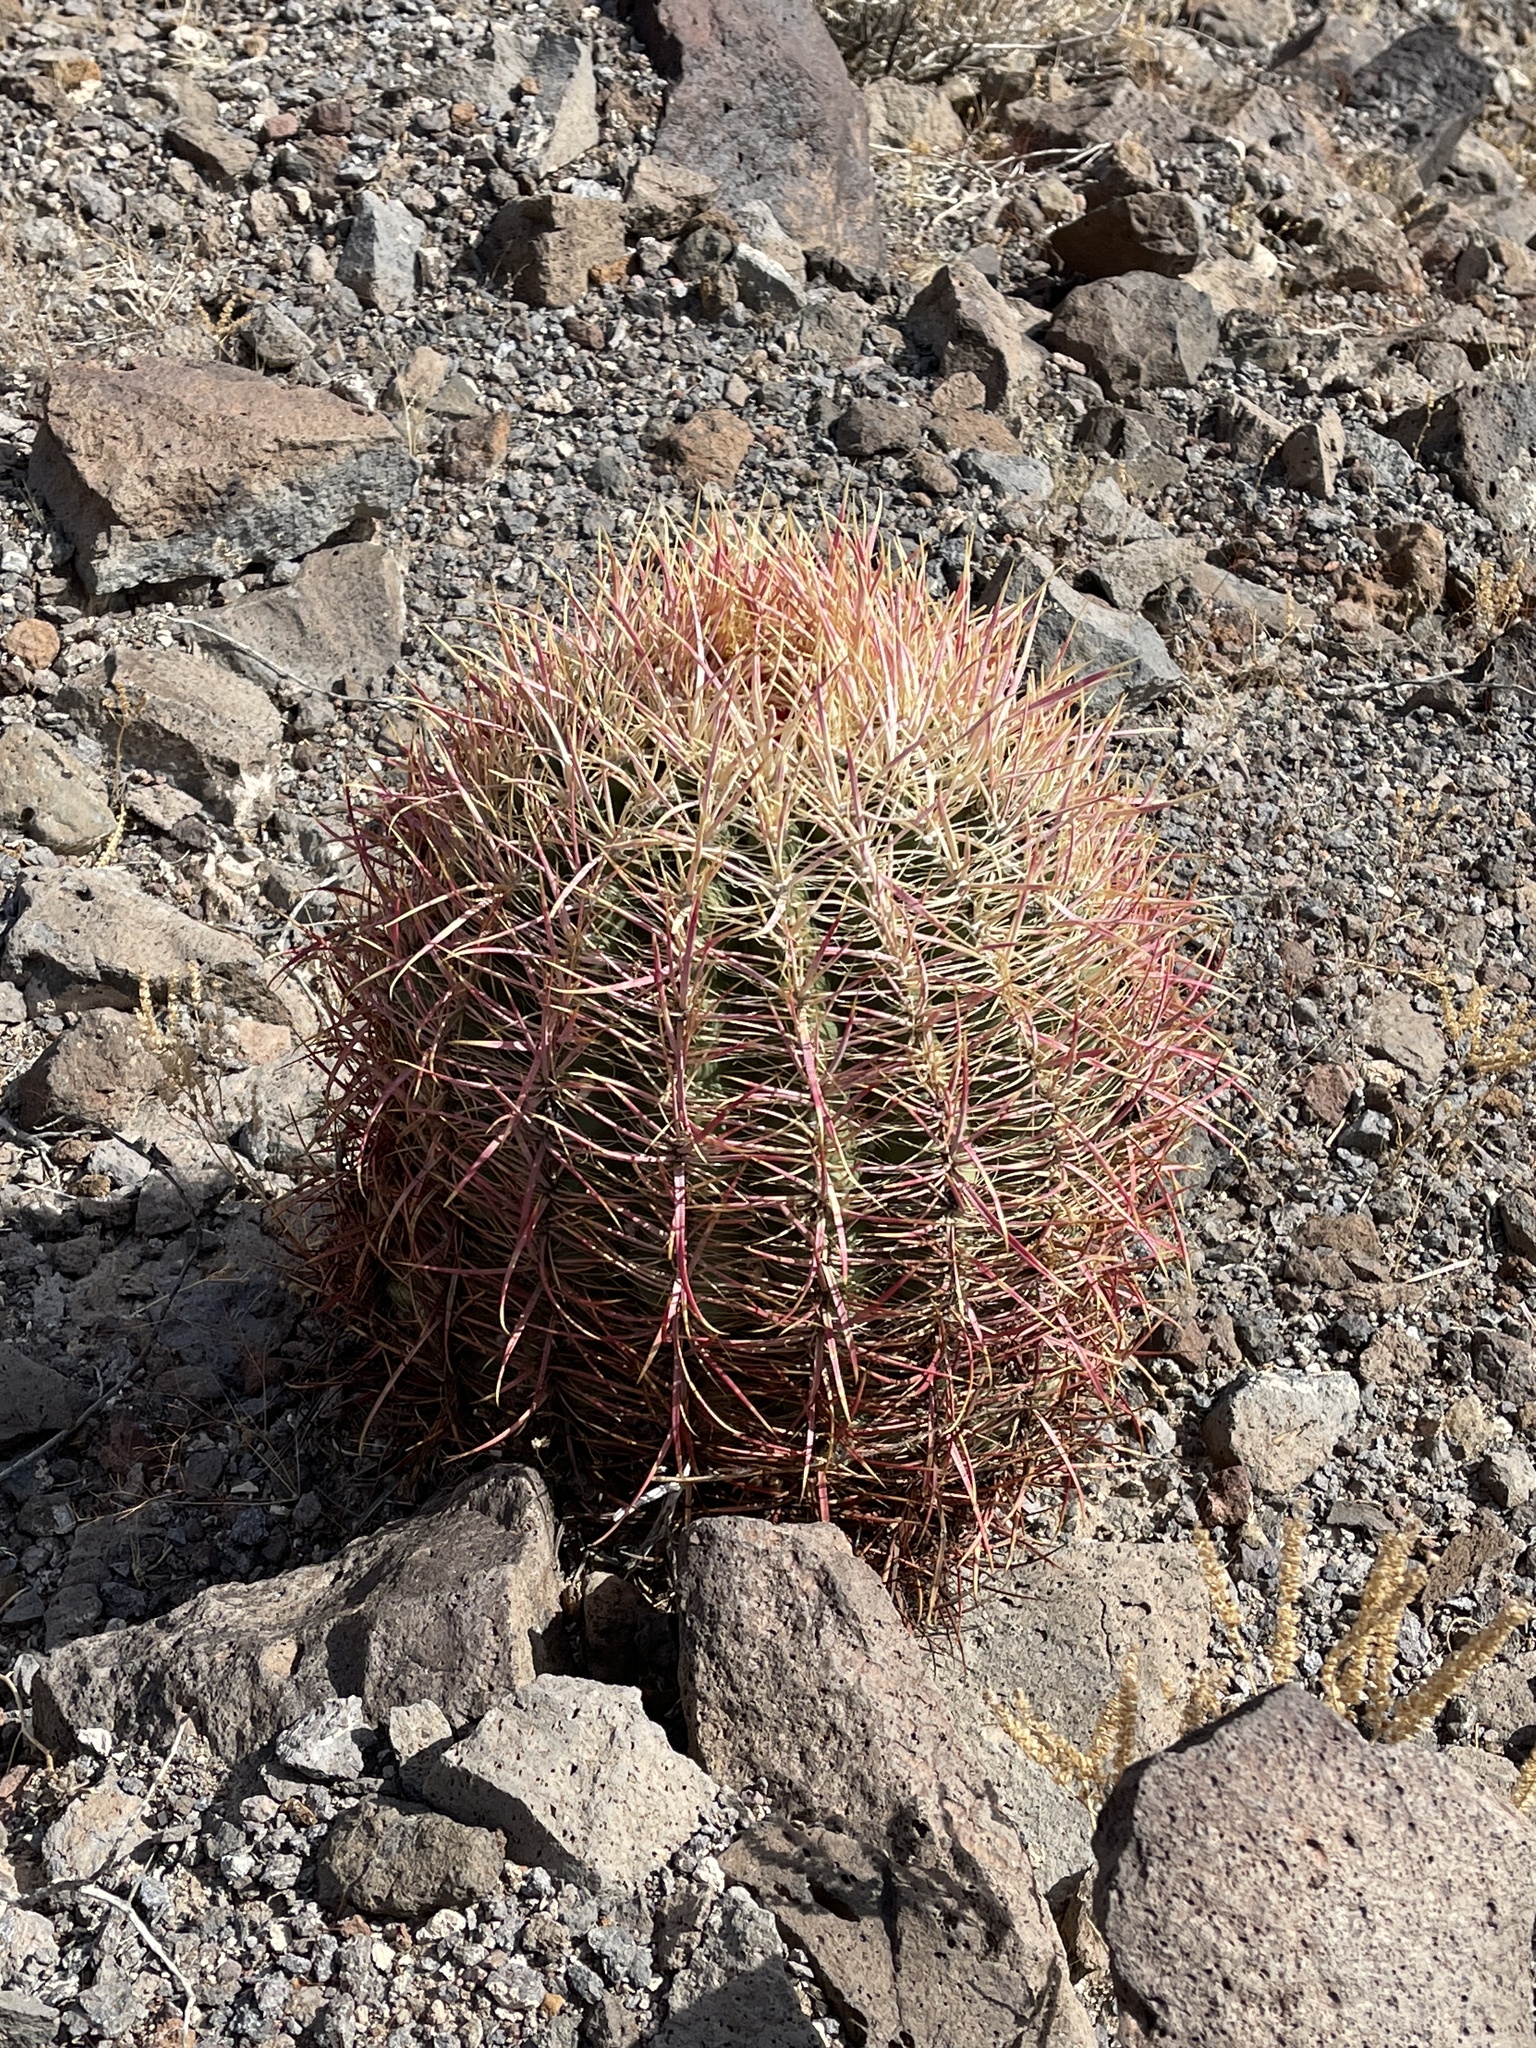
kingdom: Plantae
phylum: Tracheophyta
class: Magnoliopsida
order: Caryophyllales
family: Cactaceae
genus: Ferocactus
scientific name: Ferocactus cylindraceus
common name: California barrel cactus
